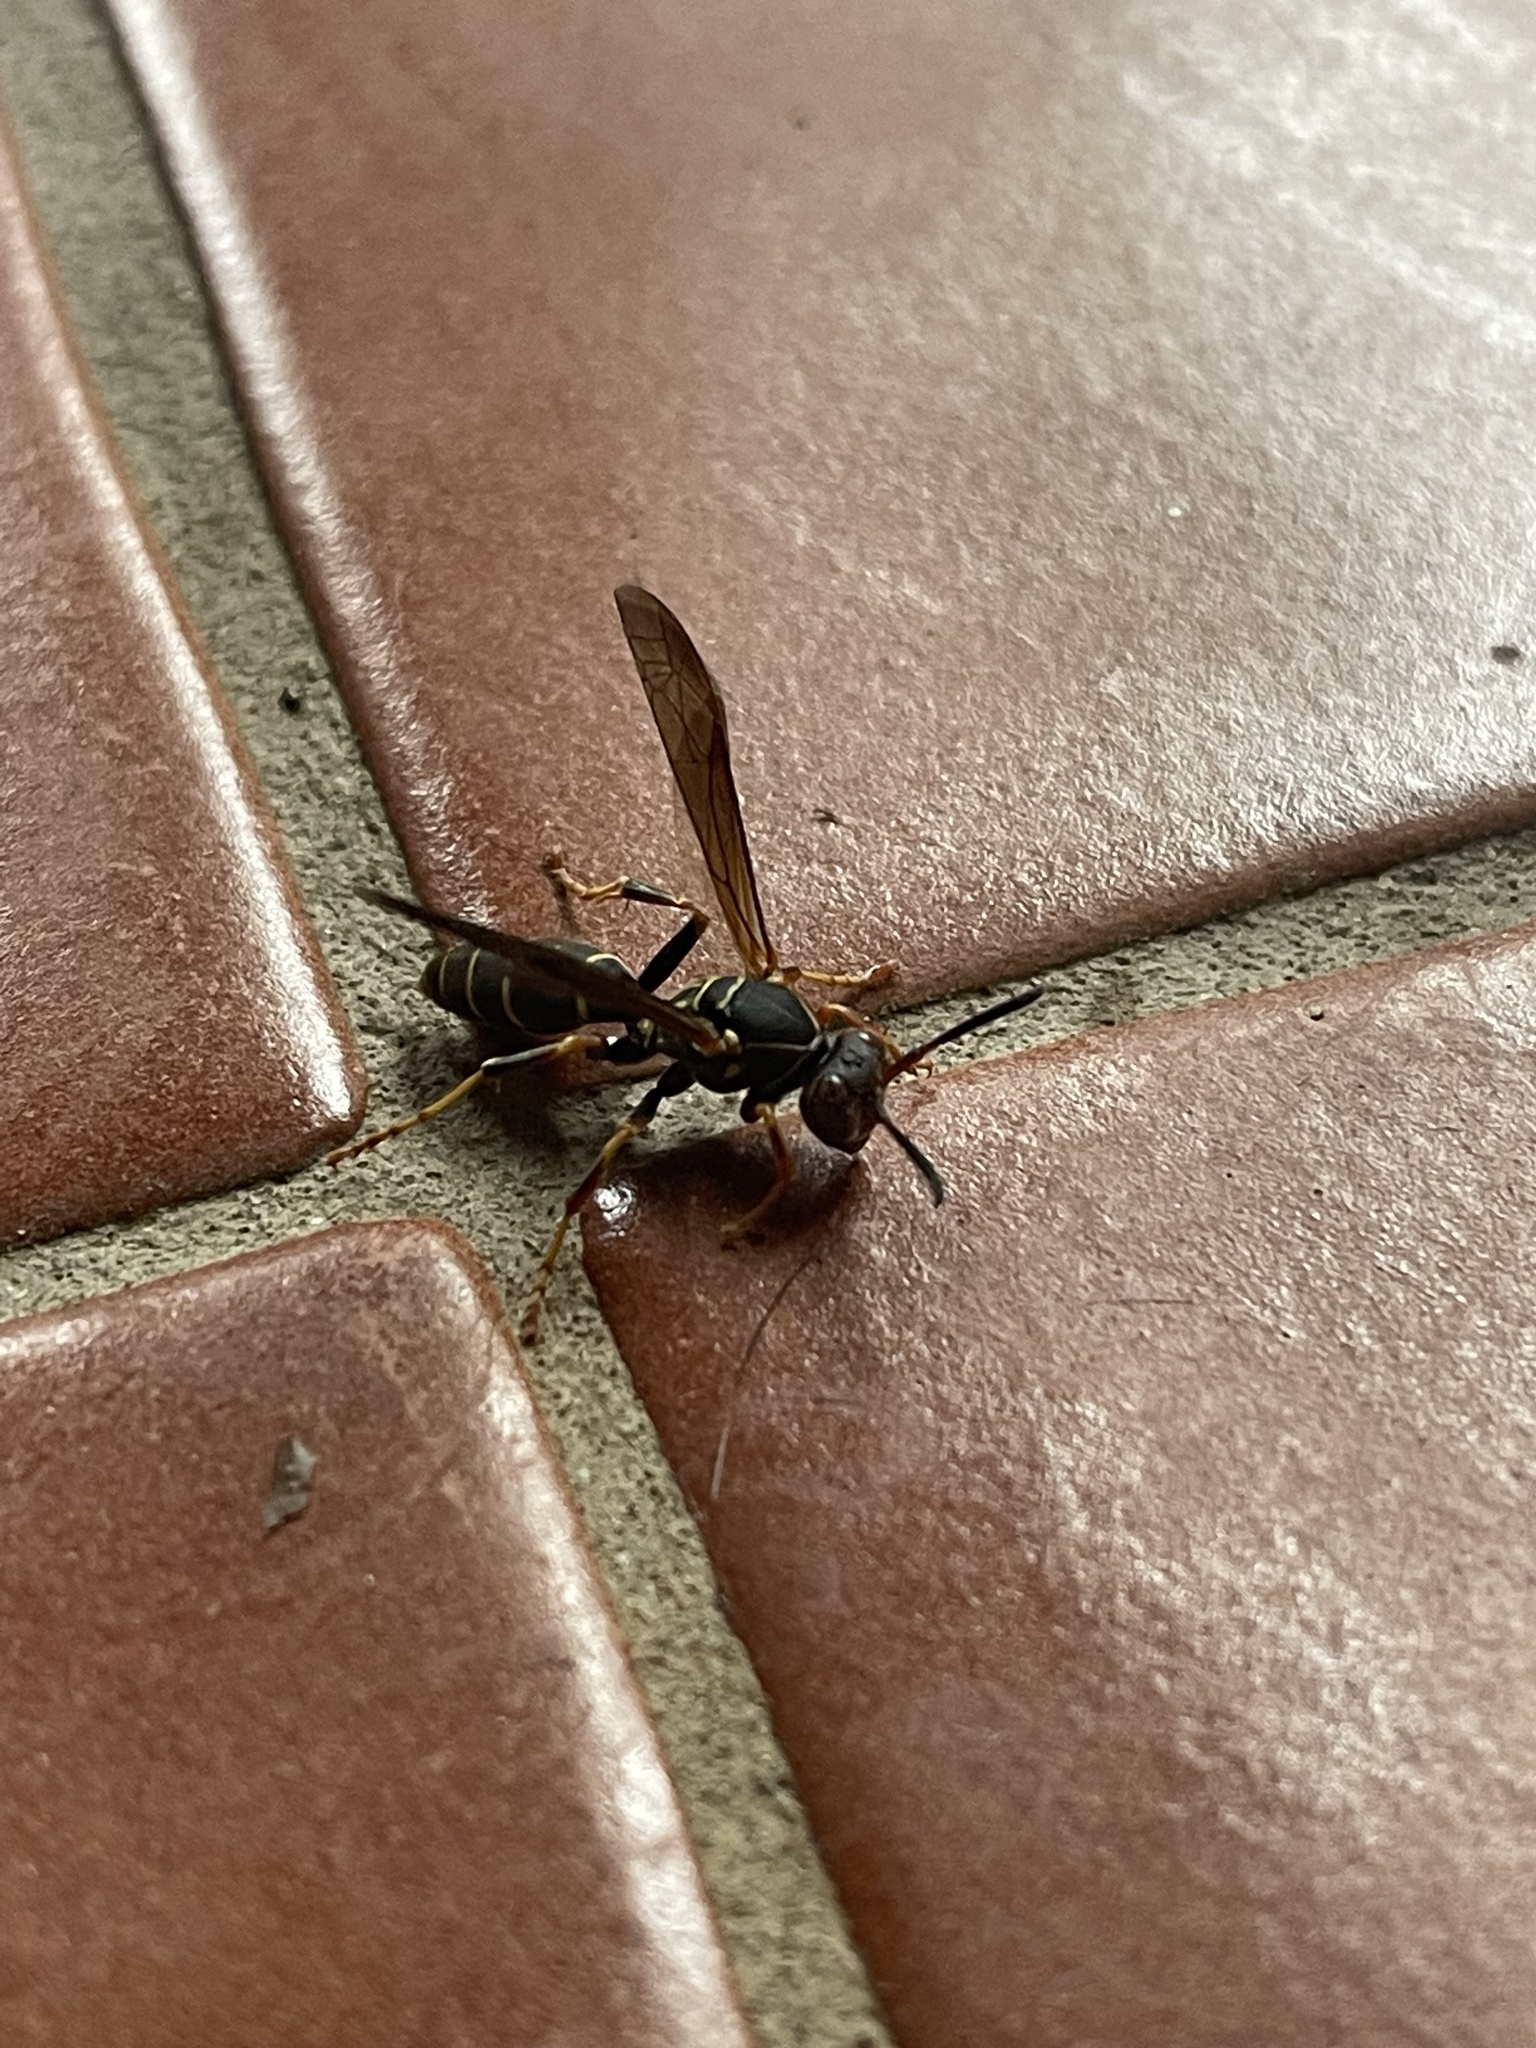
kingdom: Animalia
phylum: Arthropoda
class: Insecta
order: Hymenoptera
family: Eumenidae
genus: Polistes
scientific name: Polistes fuscatus
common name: Dark paper wasp
